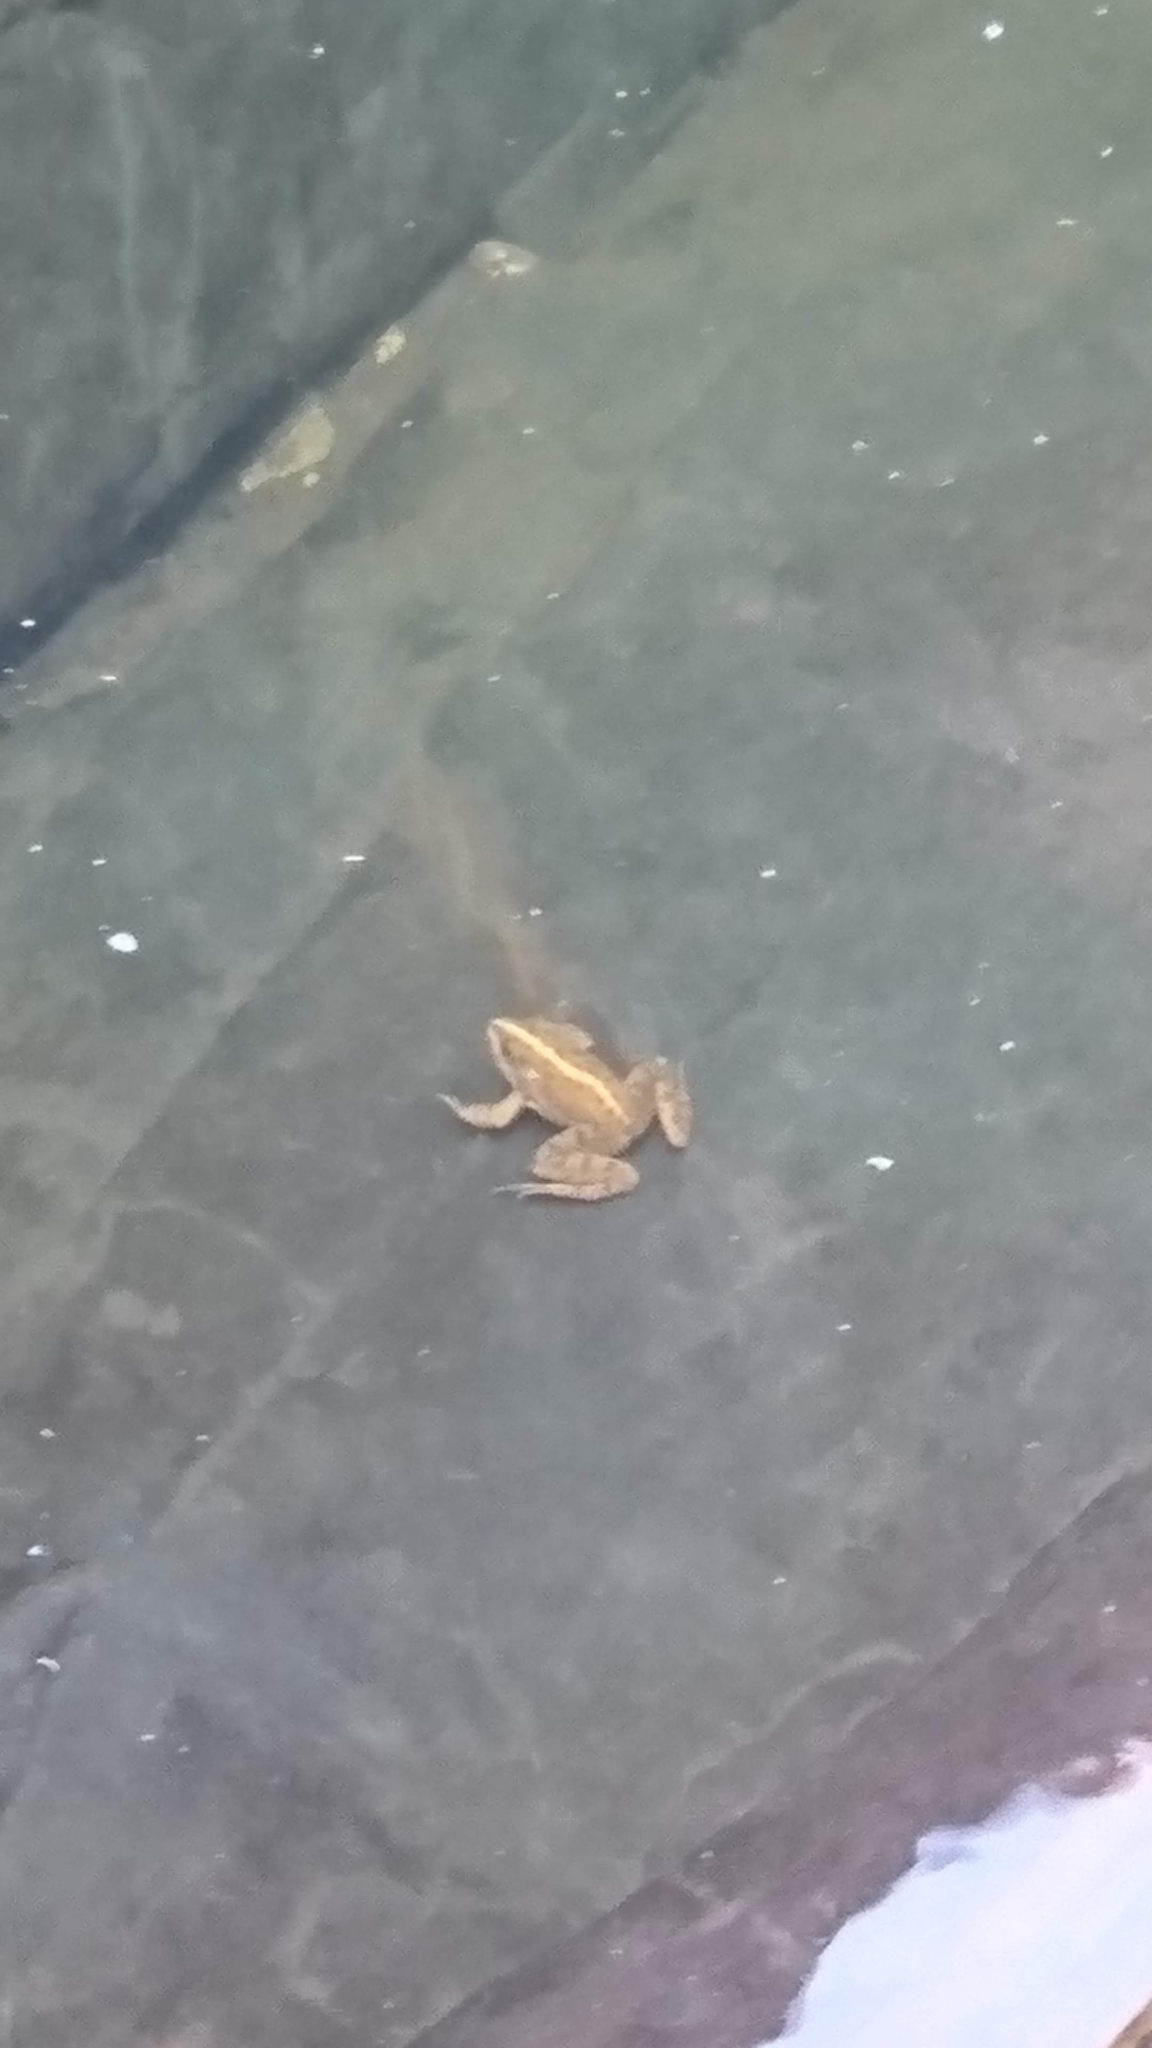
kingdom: Animalia
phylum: Chordata
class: Amphibia
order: Anura
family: Pyxicephalidae
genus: Amietia
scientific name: Amietia fuscigula
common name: Cape rana
